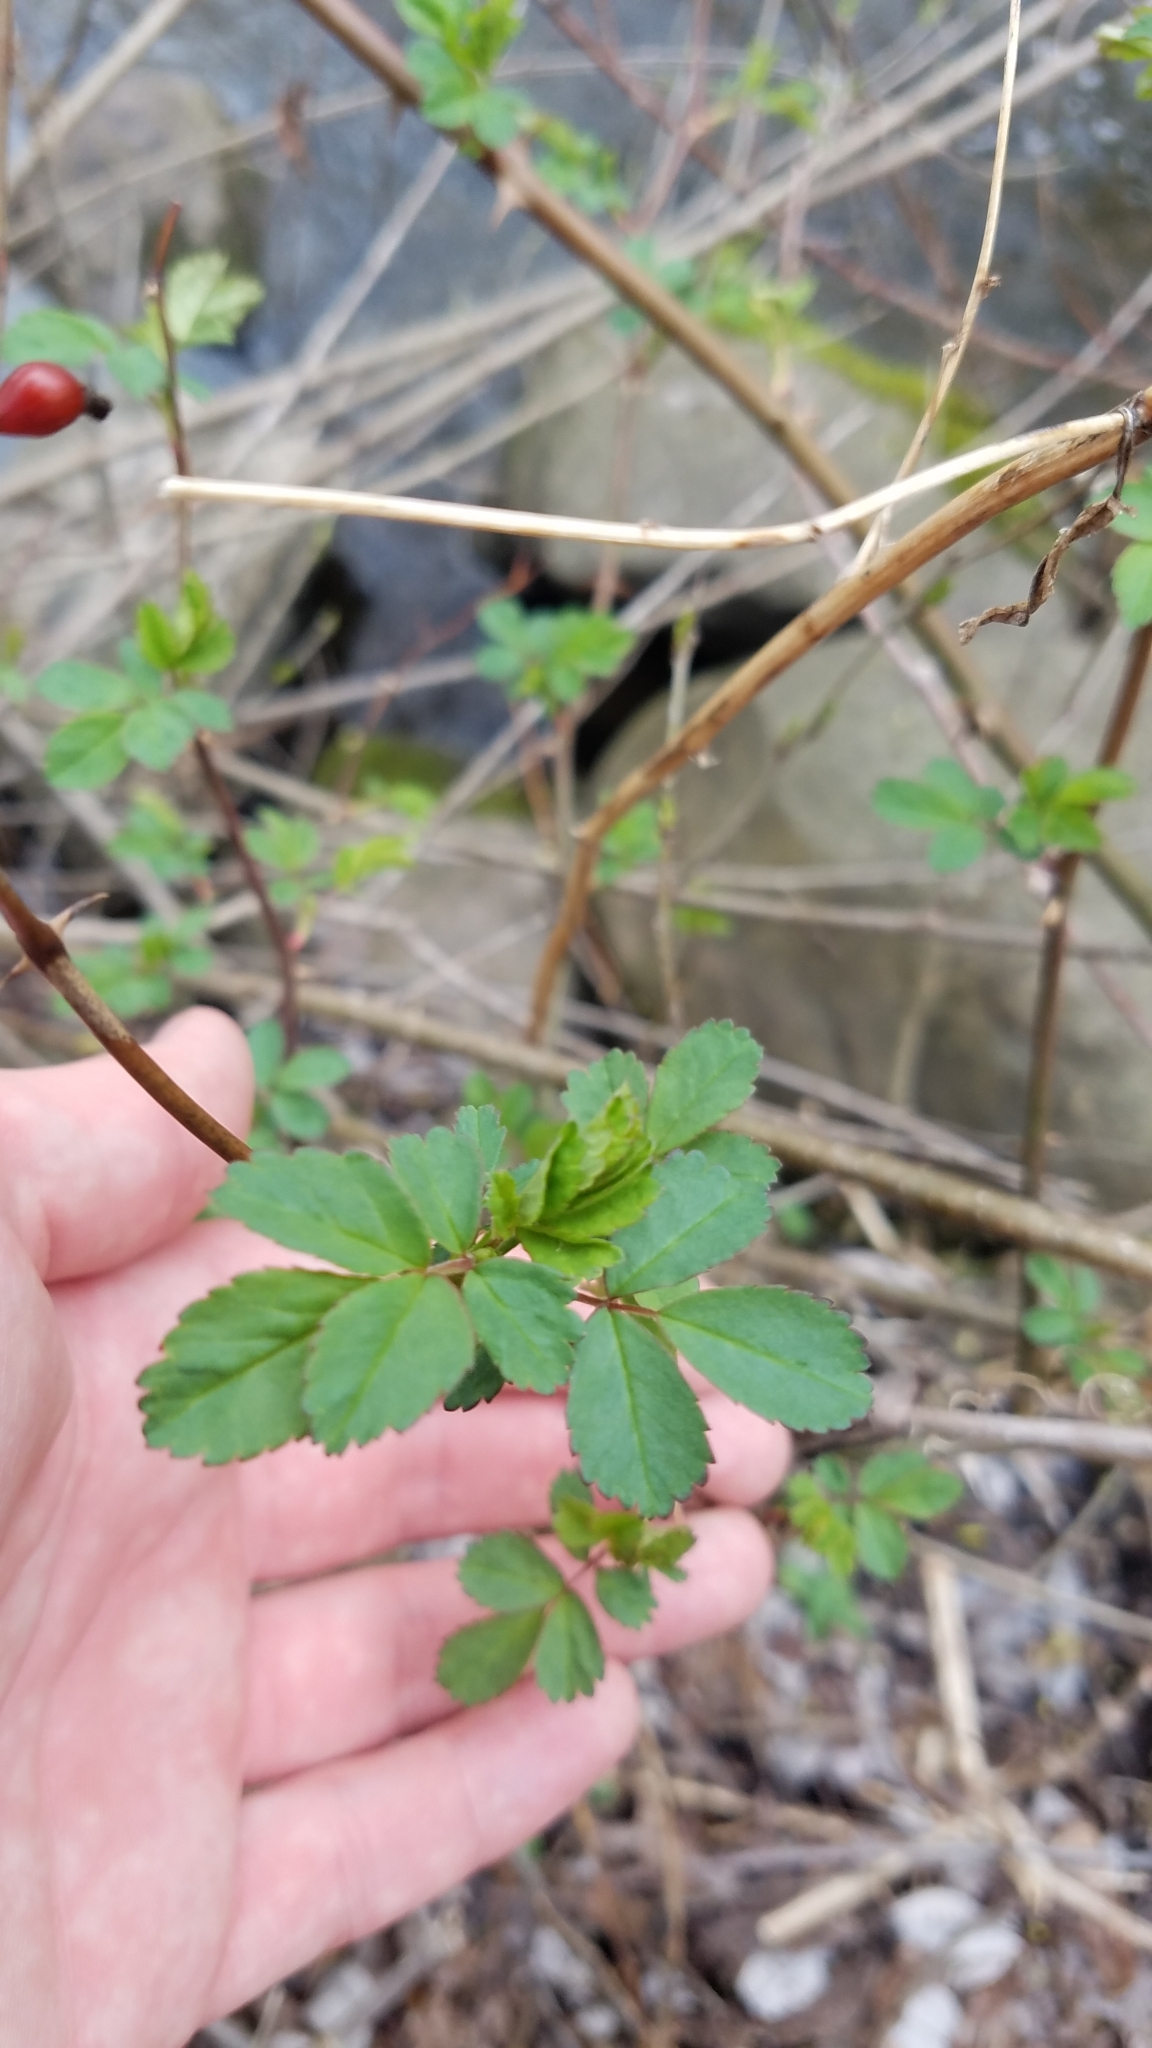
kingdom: Plantae
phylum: Tracheophyta
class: Magnoliopsida
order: Rosales
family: Rosaceae
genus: Rosa
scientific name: Rosa multiflora
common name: Multiflora rose
